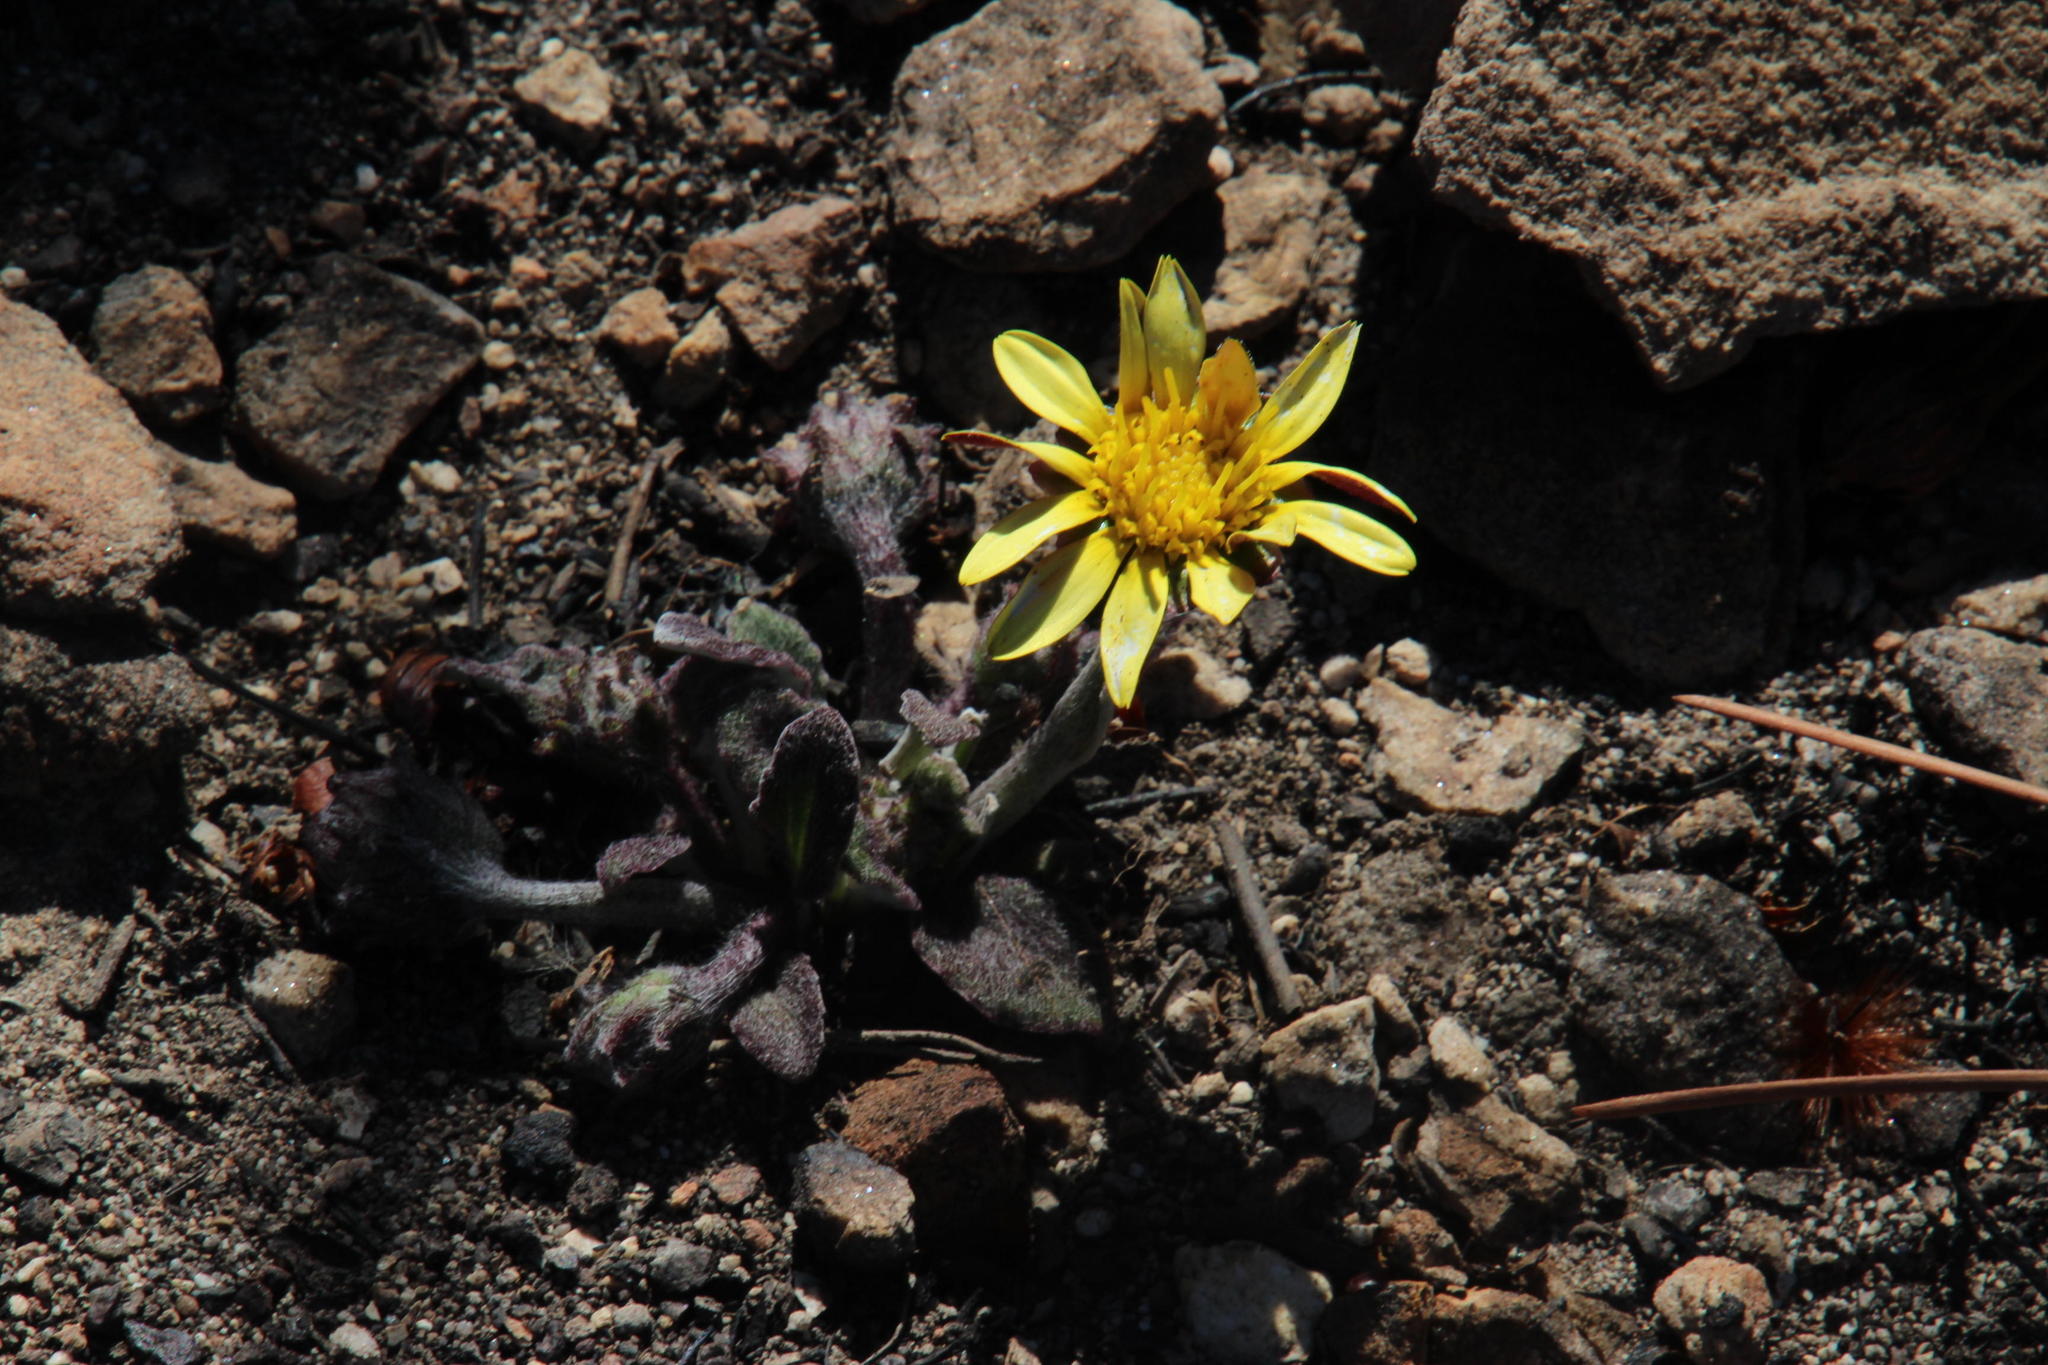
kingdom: Plantae
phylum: Tracheophyta
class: Magnoliopsida
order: Asterales
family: Asteraceae
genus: Haplocarpha
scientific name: Haplocarpha lanata
